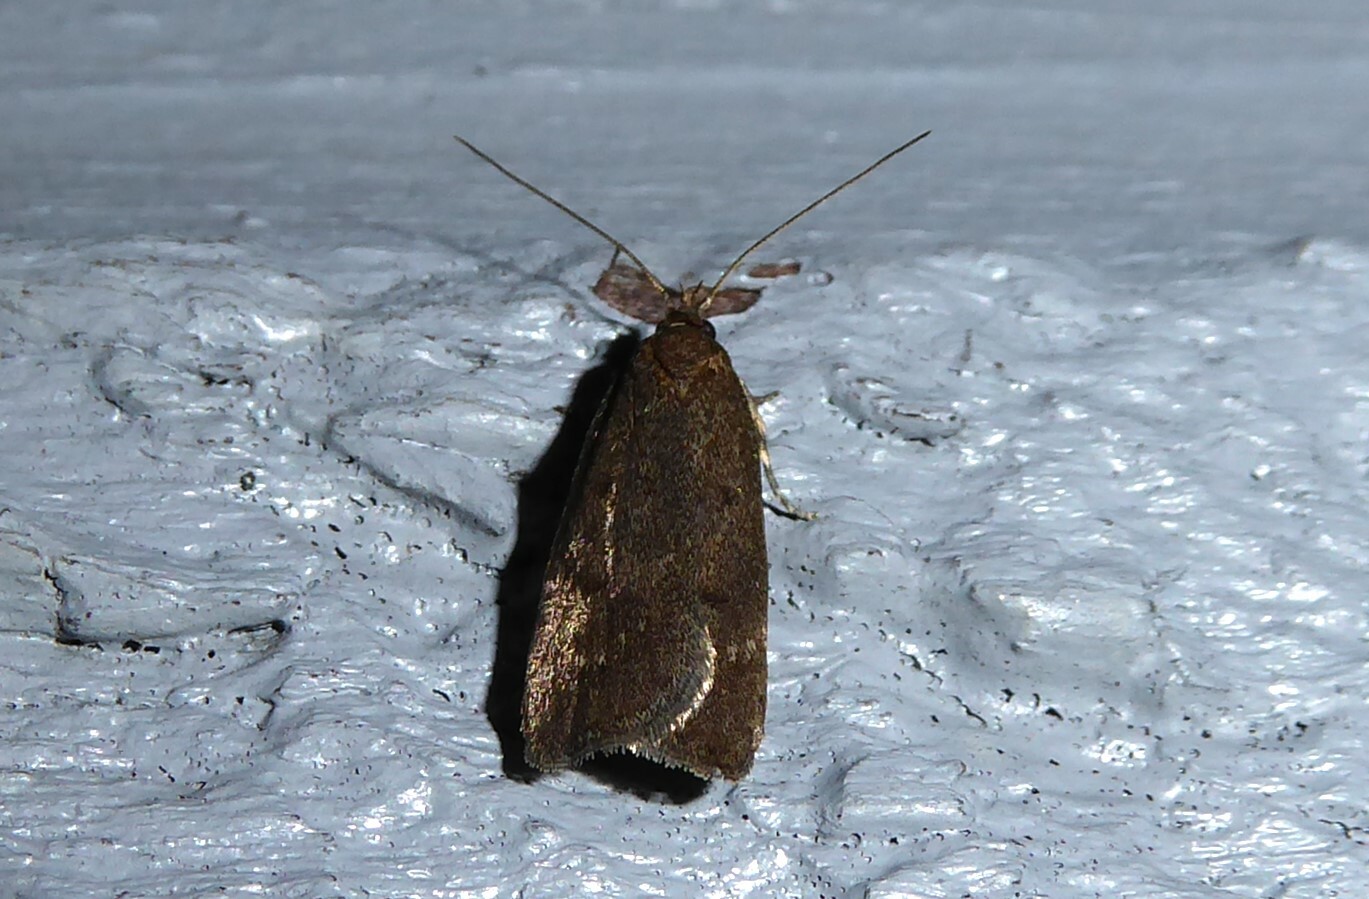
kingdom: Animalia
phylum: Arthropoda
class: Insecta
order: Lepidoptera
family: Depressariidae
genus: Phaeosaces
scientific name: Phaeosaces apocrypta
